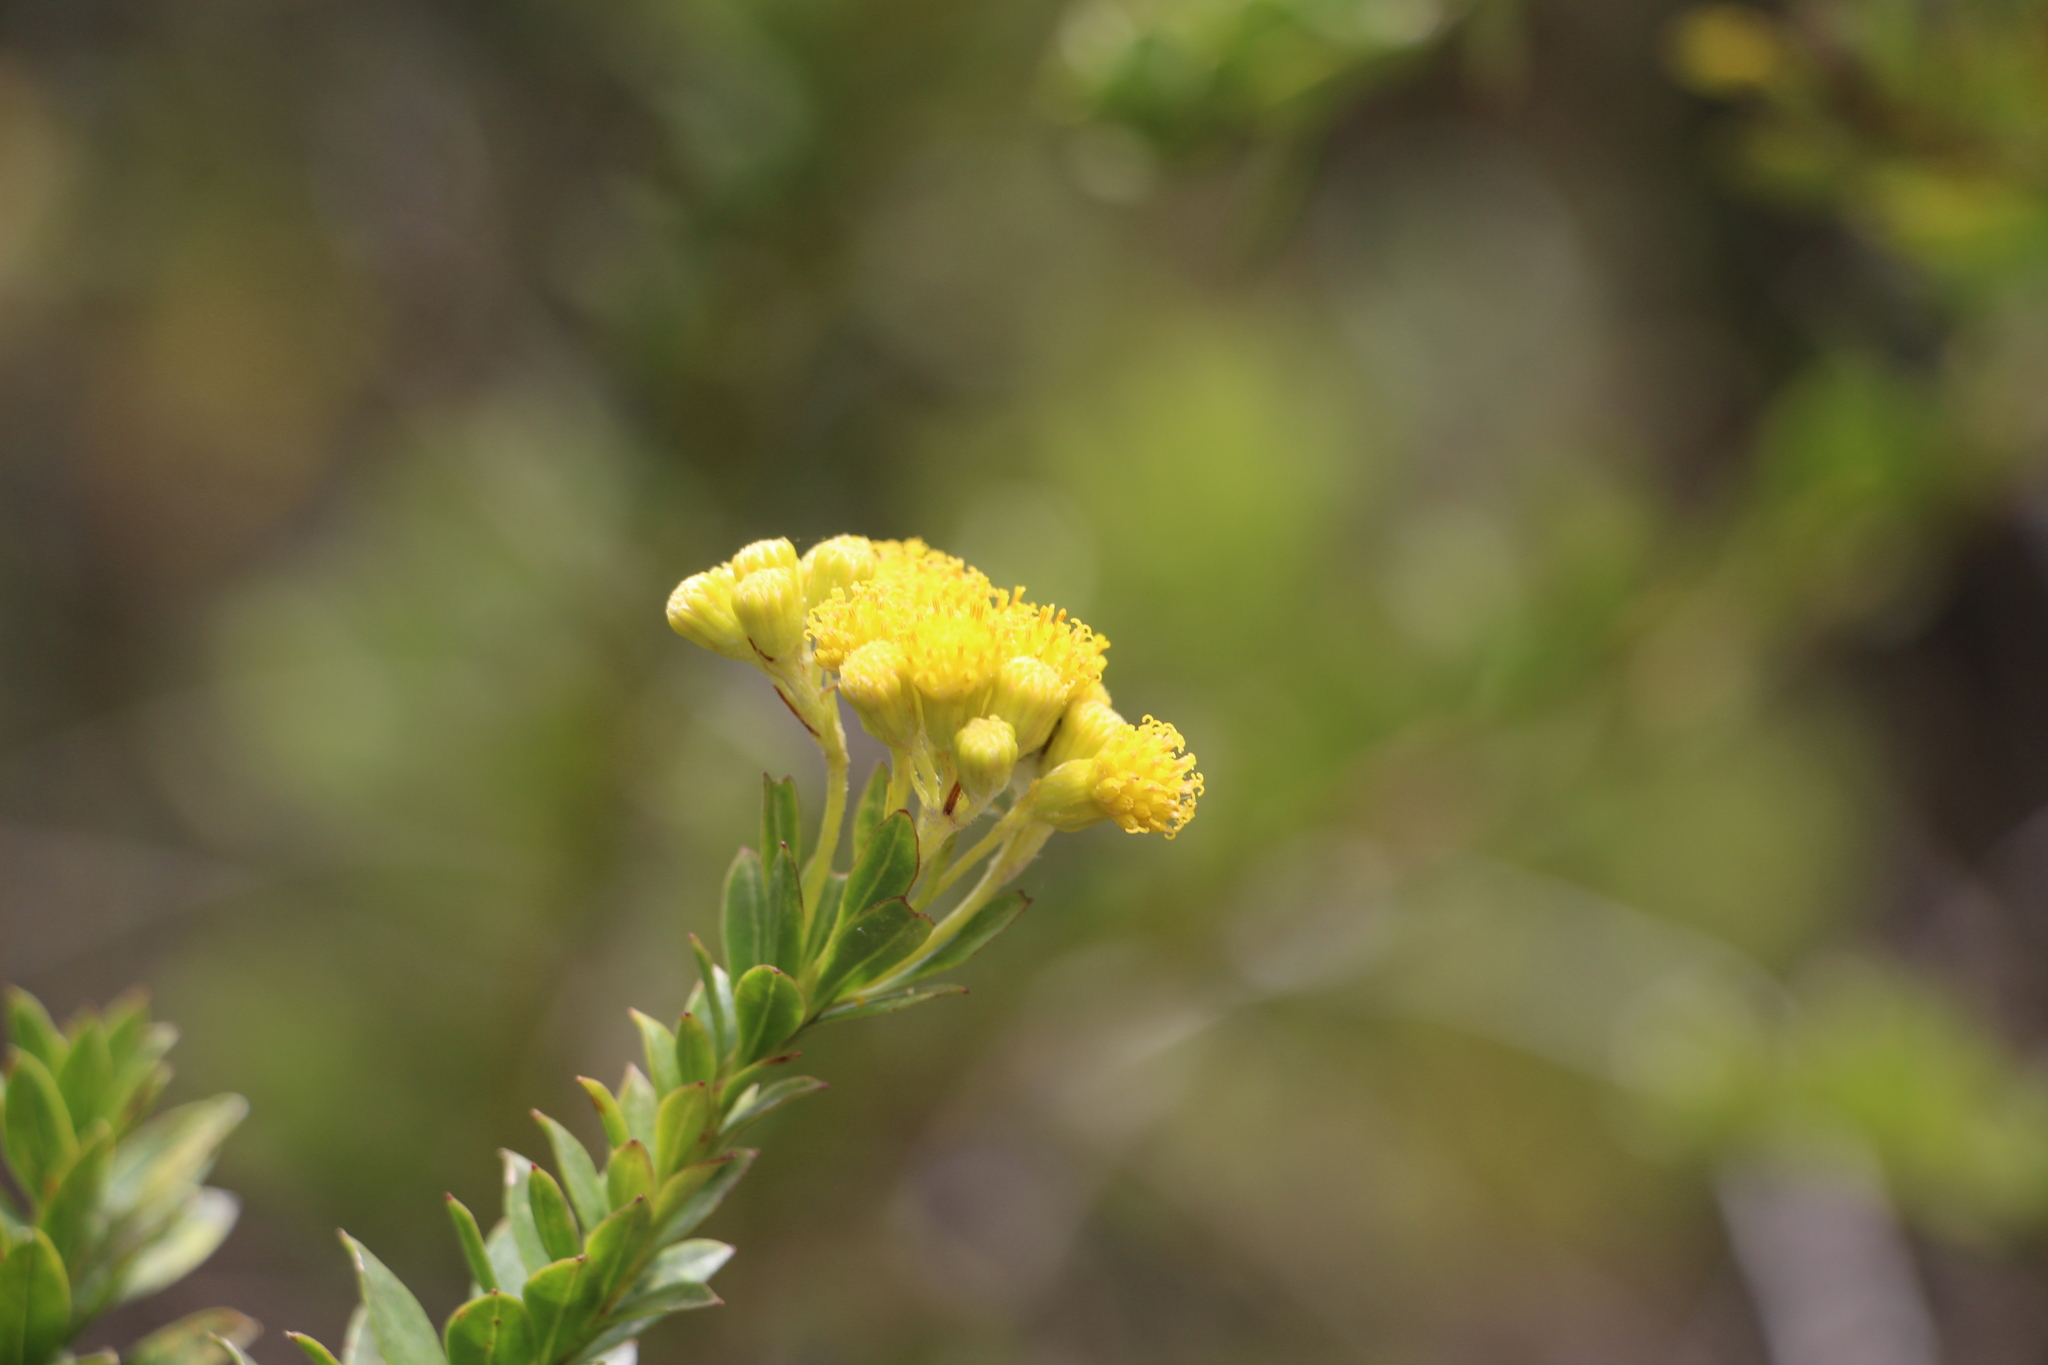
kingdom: Plantae
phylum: Tracheophyta
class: Magnoliopsida
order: Asterales
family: Asteraceae
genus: Monticalia
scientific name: Monticalia corymbosa
